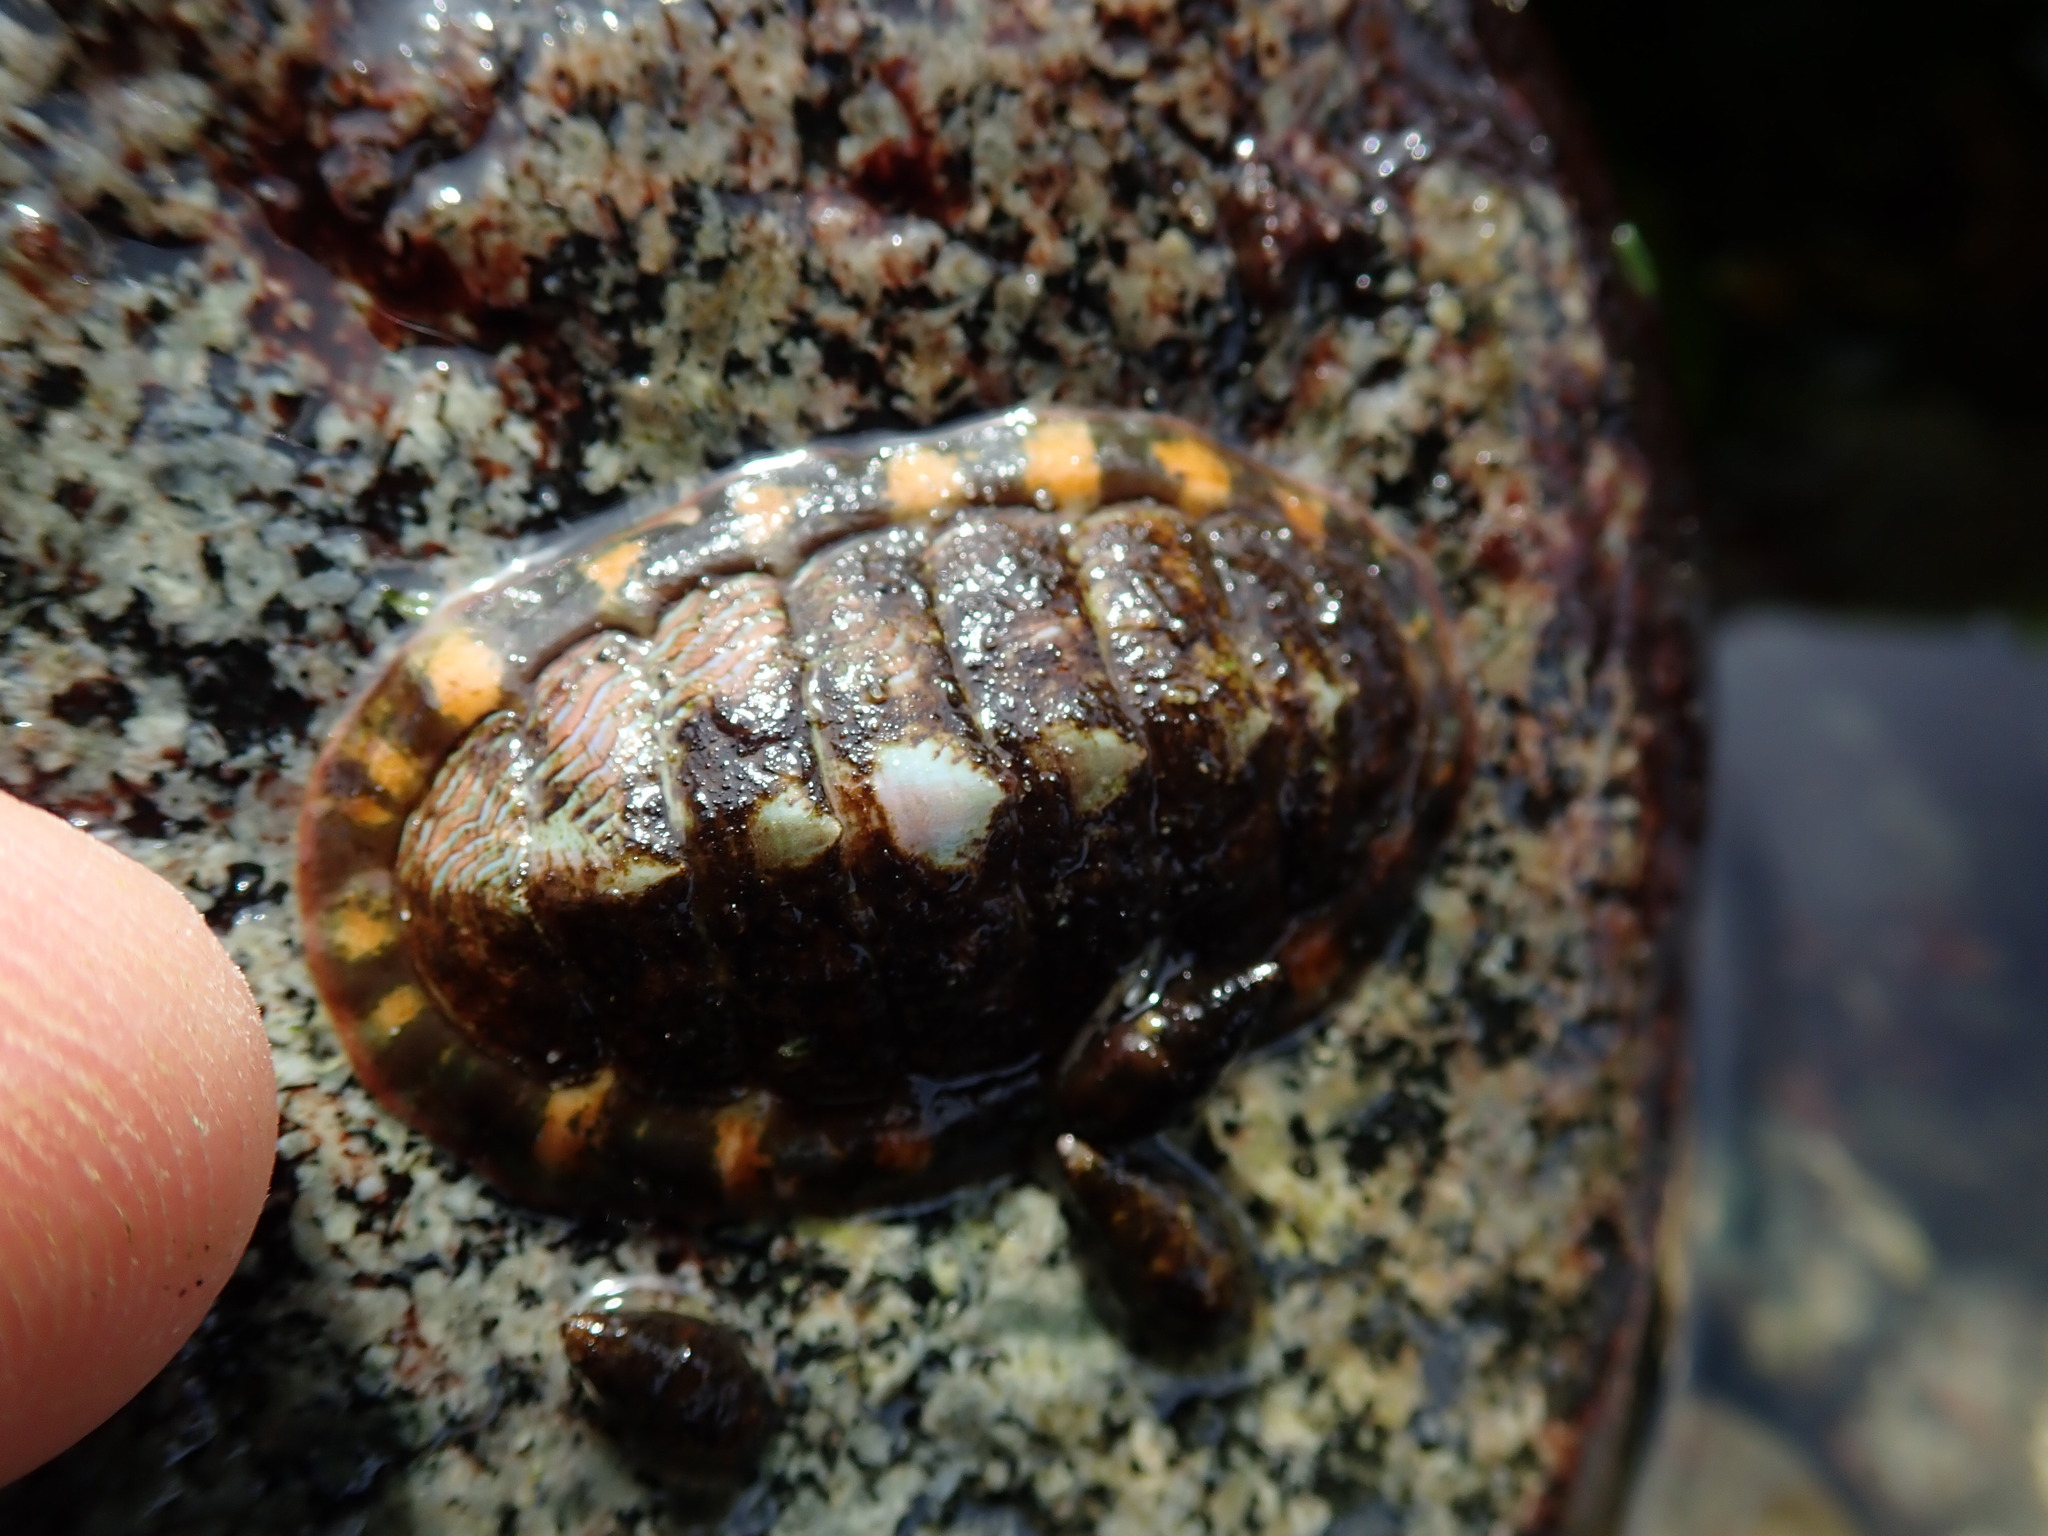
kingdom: Animalia
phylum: Mollusca
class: Polyplacophora
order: Chitonida
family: Tonicellidae
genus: Tonicella
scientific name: Tonicella lineata
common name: Lined chiton
